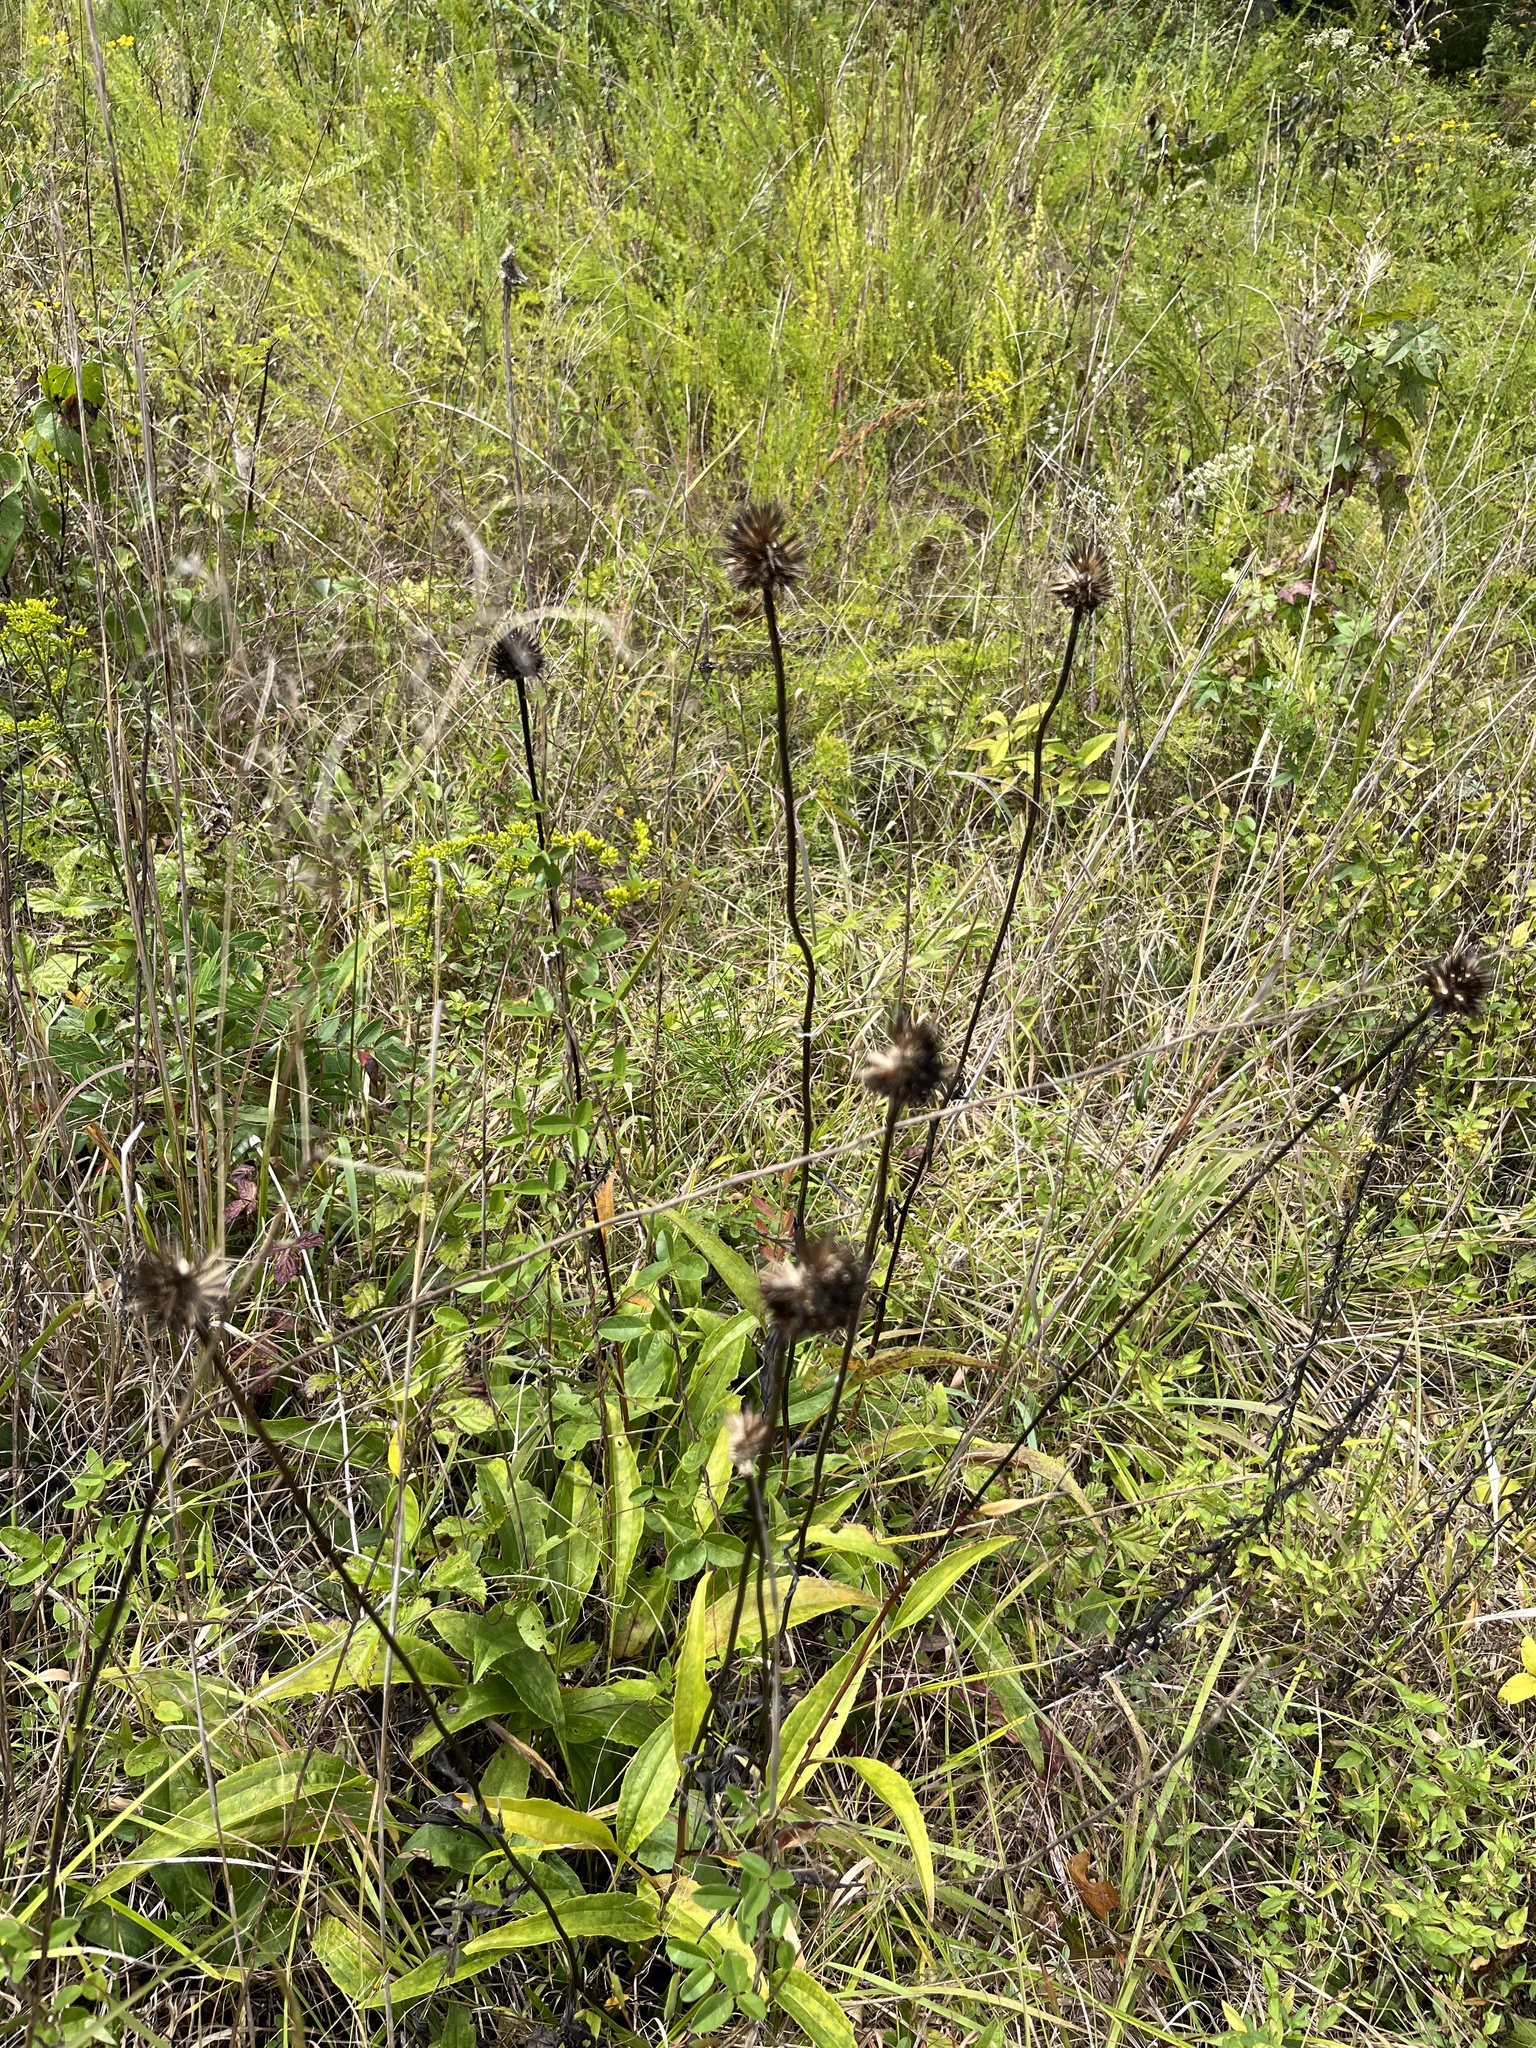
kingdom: Plantae
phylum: Tracheophyta
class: Magnoliopsida
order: Asterales
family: Asteraceae
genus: Echinacea
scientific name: Echinacea laevigata
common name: Smooth coneflower
